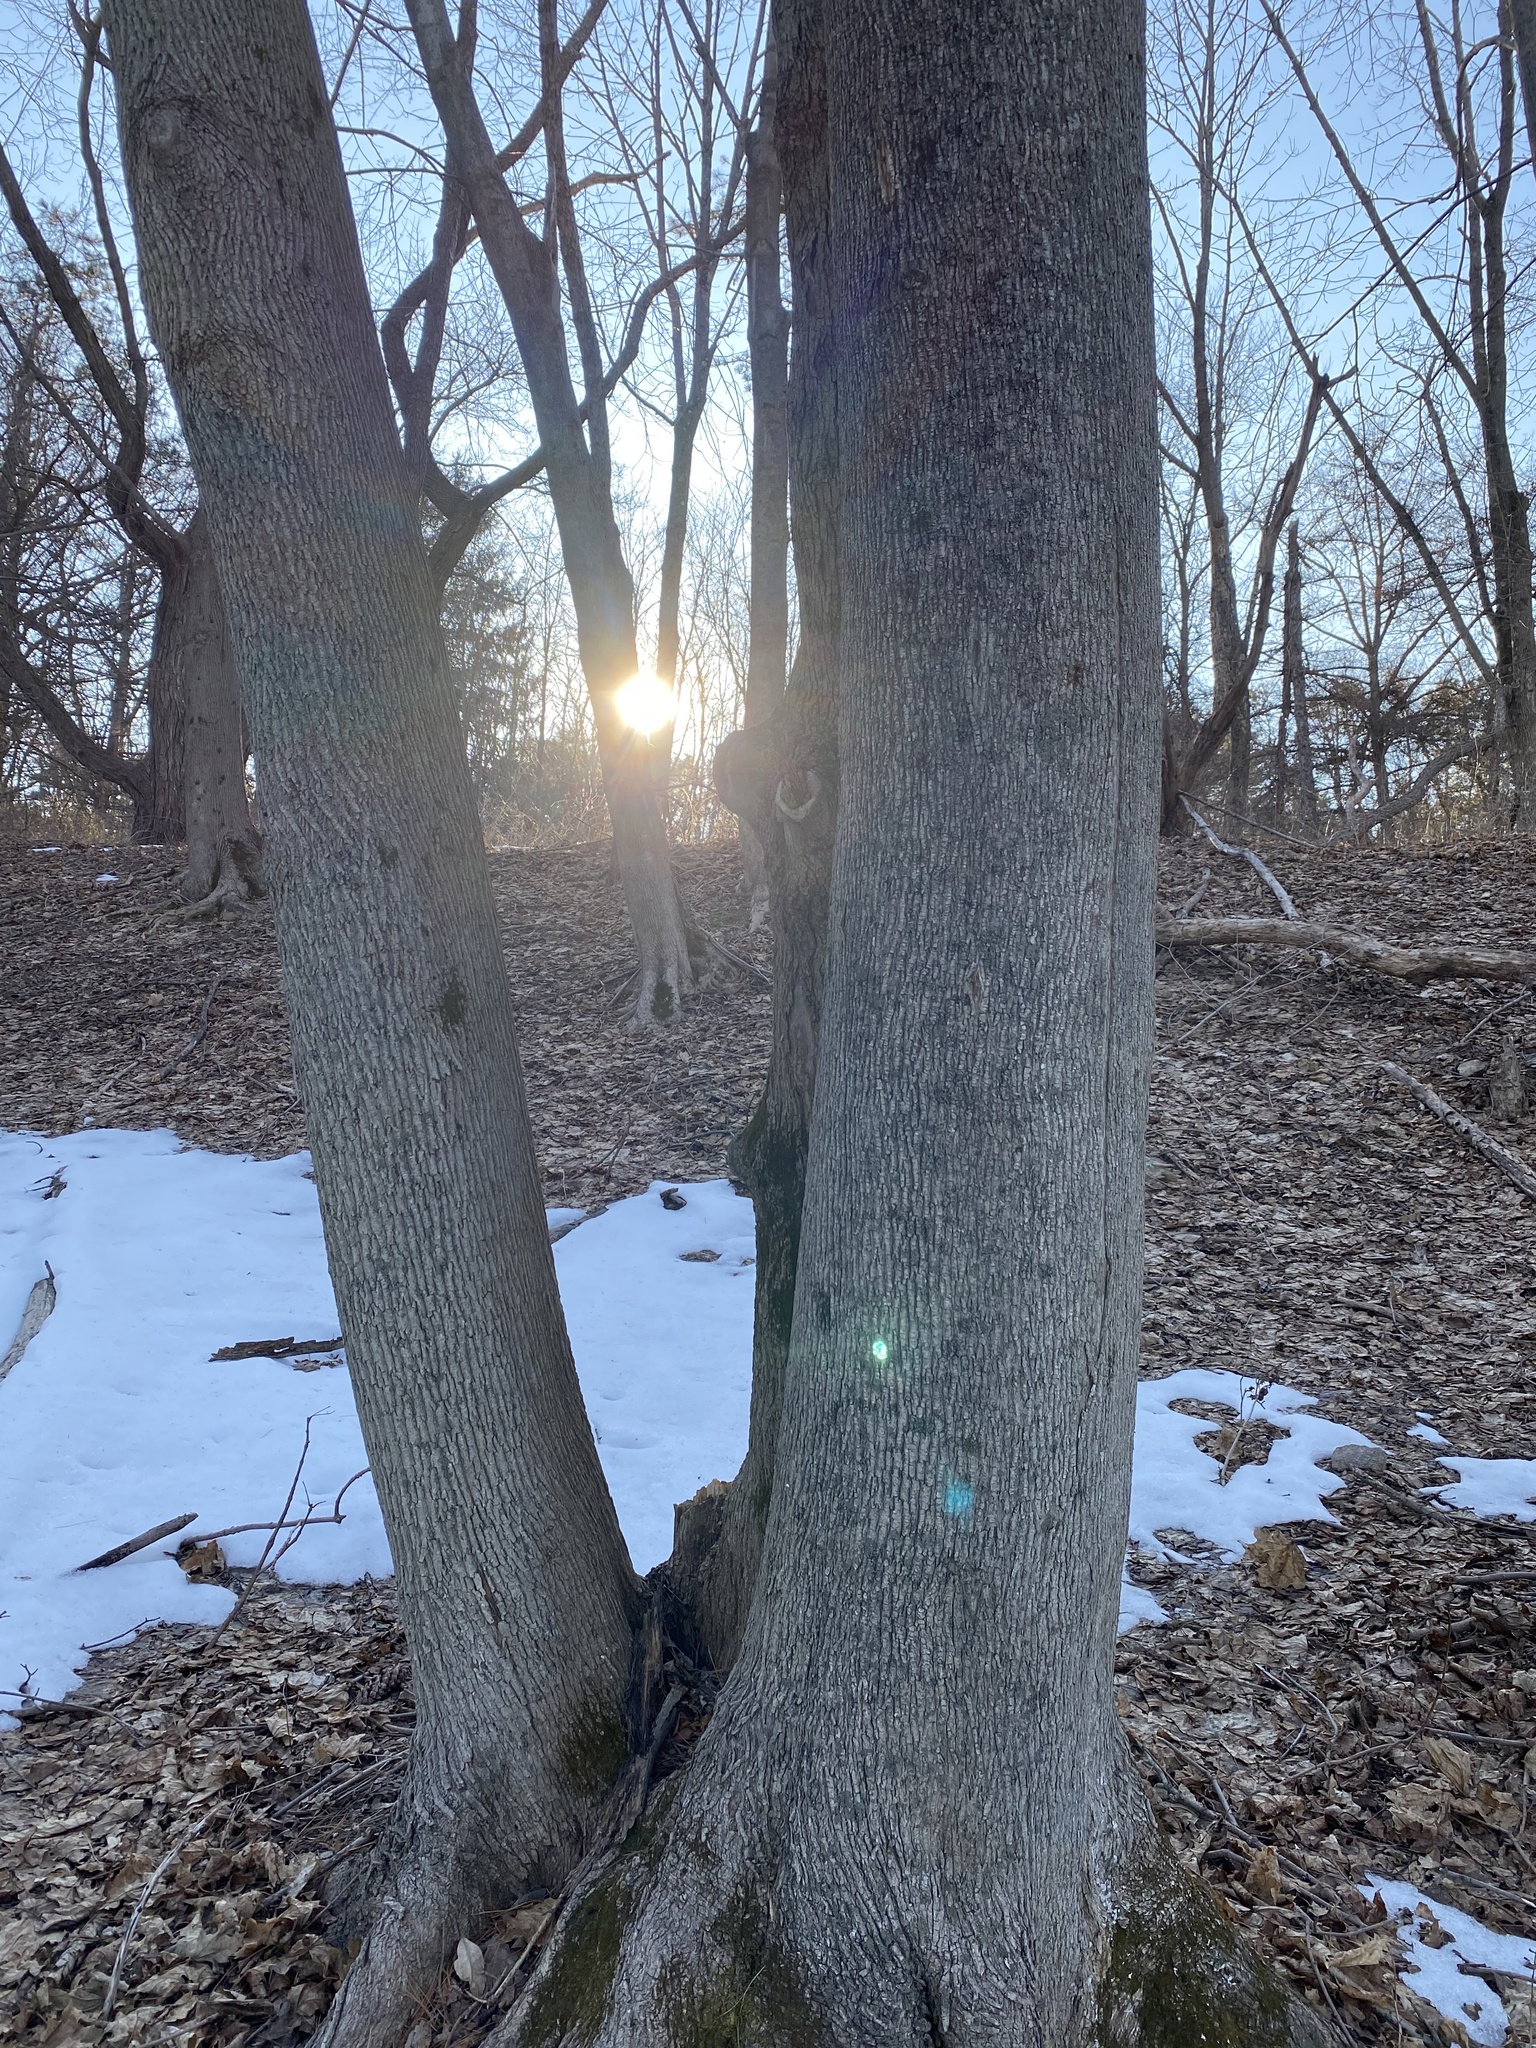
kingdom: Plantae
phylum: Tracheophyta
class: Magnoliopsida
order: Sapindales
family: Sapindaceae
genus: Acer
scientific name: Acer platanoides
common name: Norway maple
